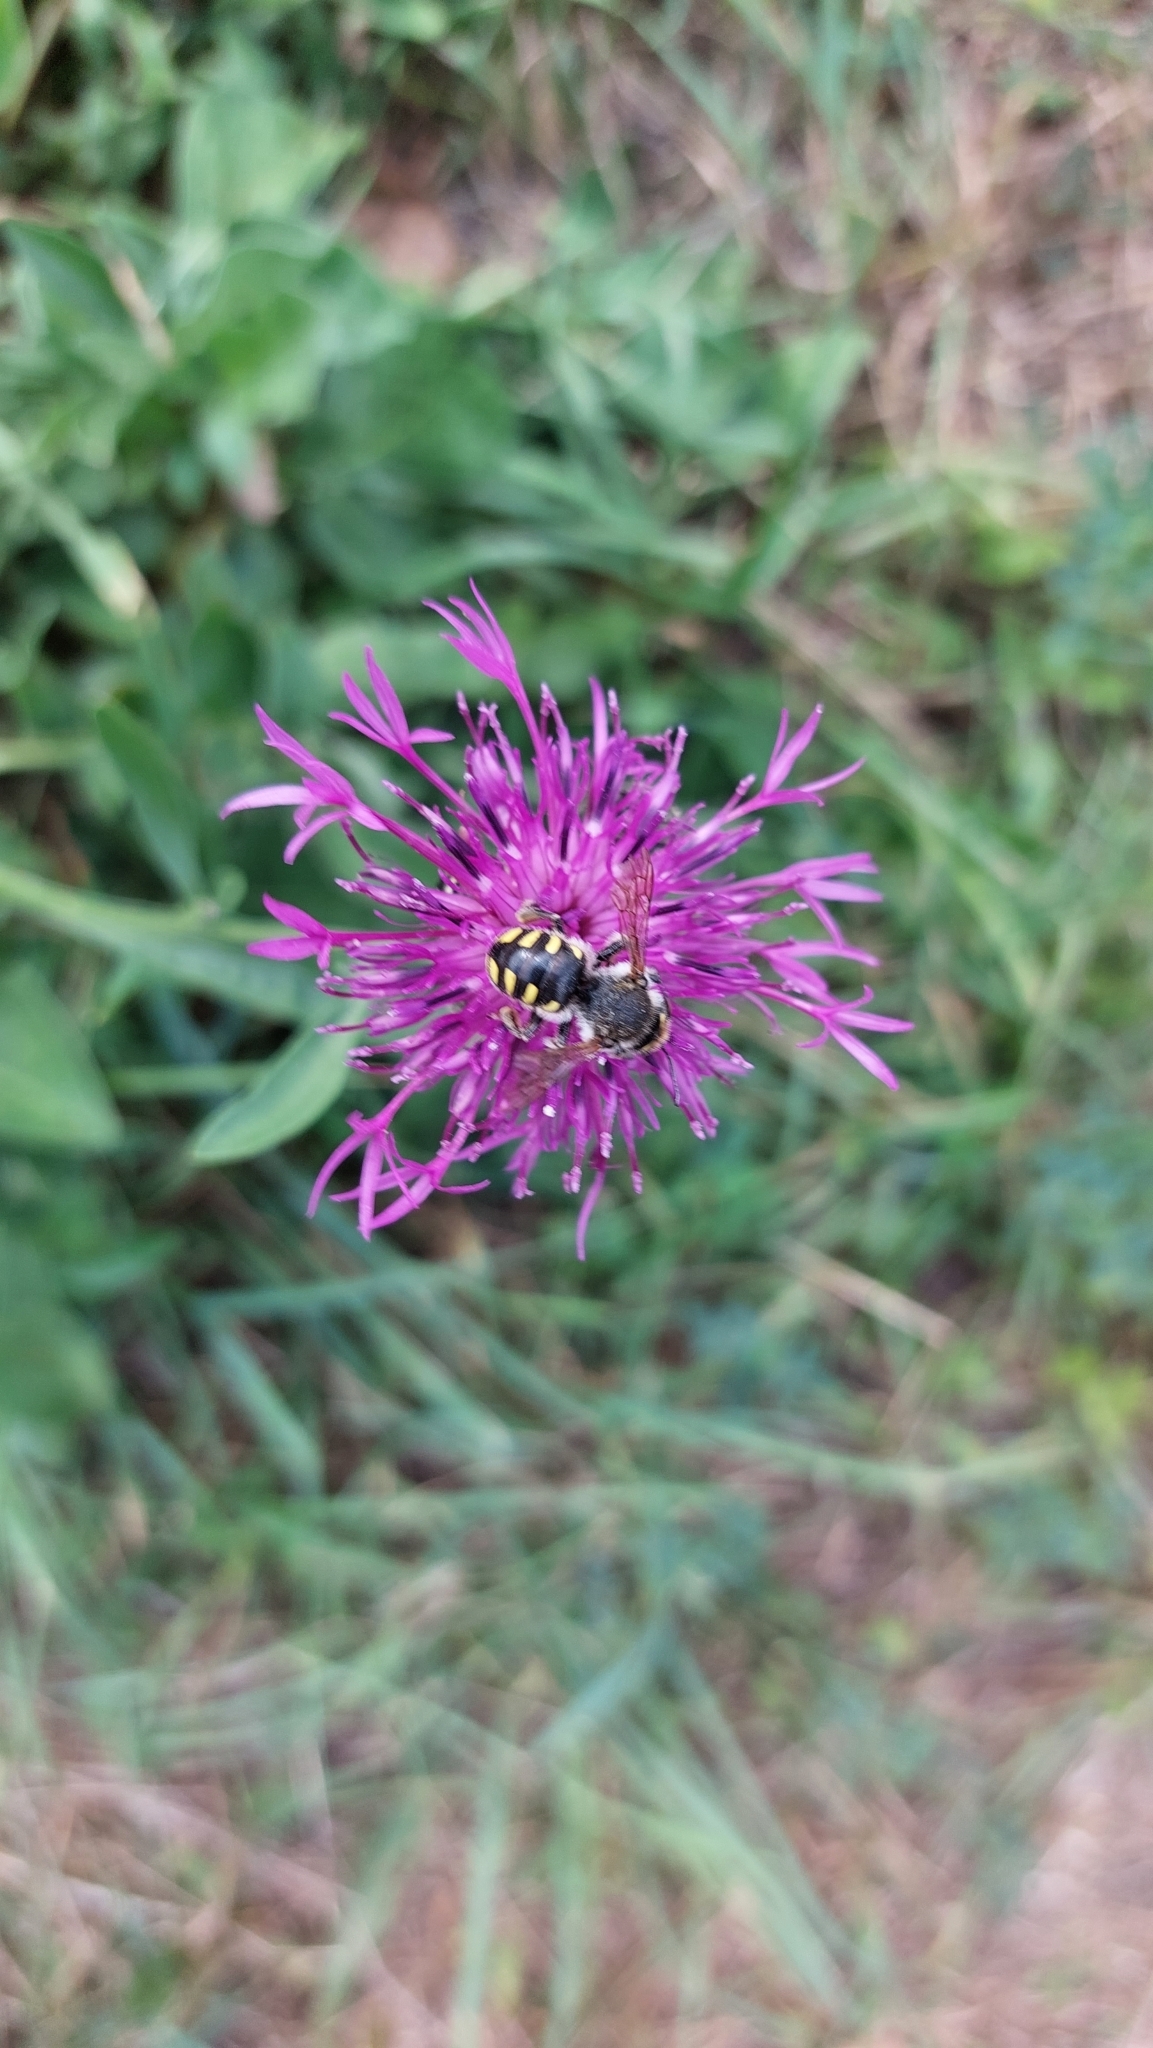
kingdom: Animalia
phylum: Arthropoda
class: Insecta
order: Hymenoptera
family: Megachilidae
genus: Anthidium
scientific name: Anthidium septemspinosum
